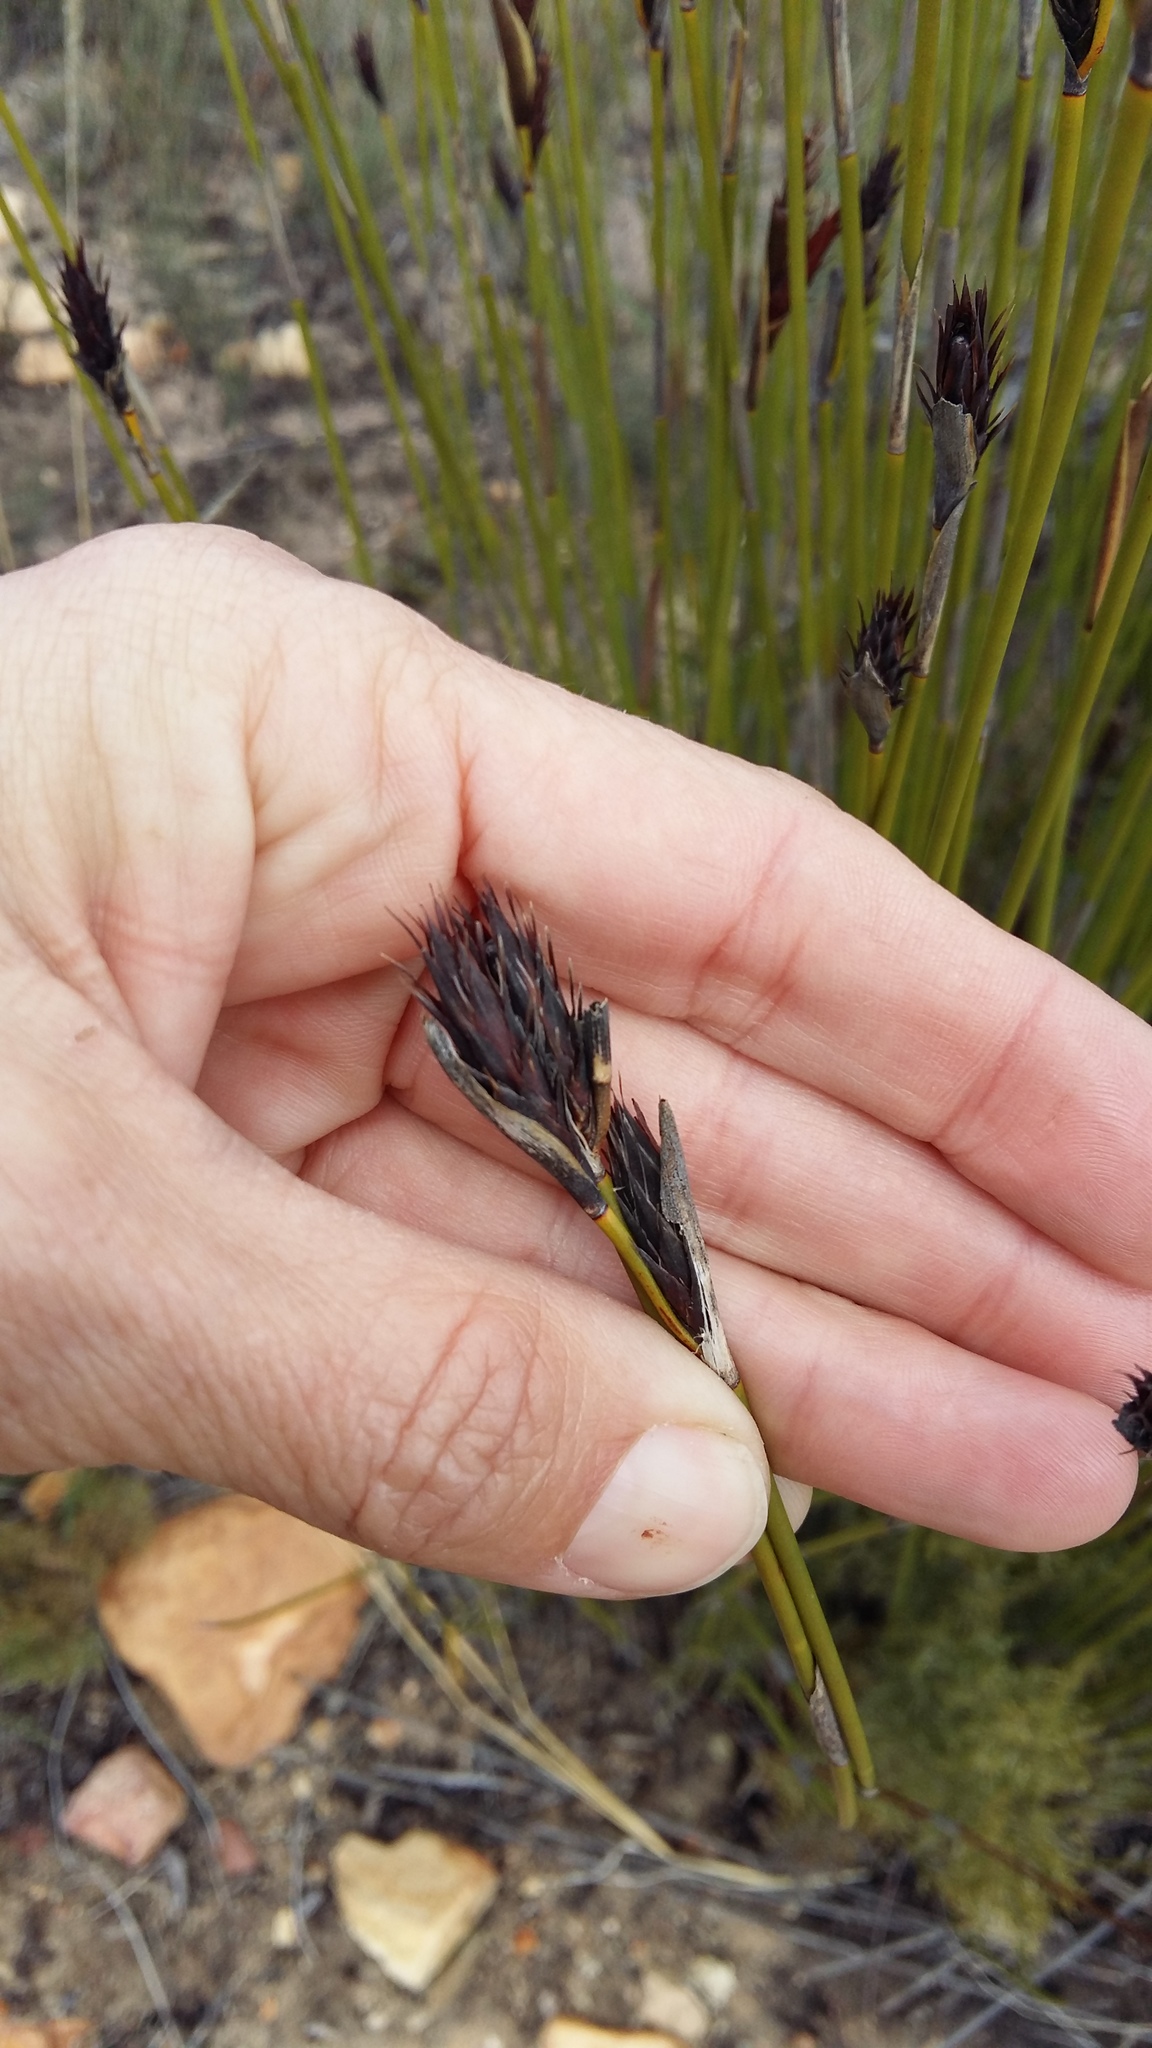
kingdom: Plantae
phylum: Tracheophyta
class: Liliopsida
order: Poales
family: Restionaceae
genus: Hypodiscus
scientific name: Hypodiscus aristatus
